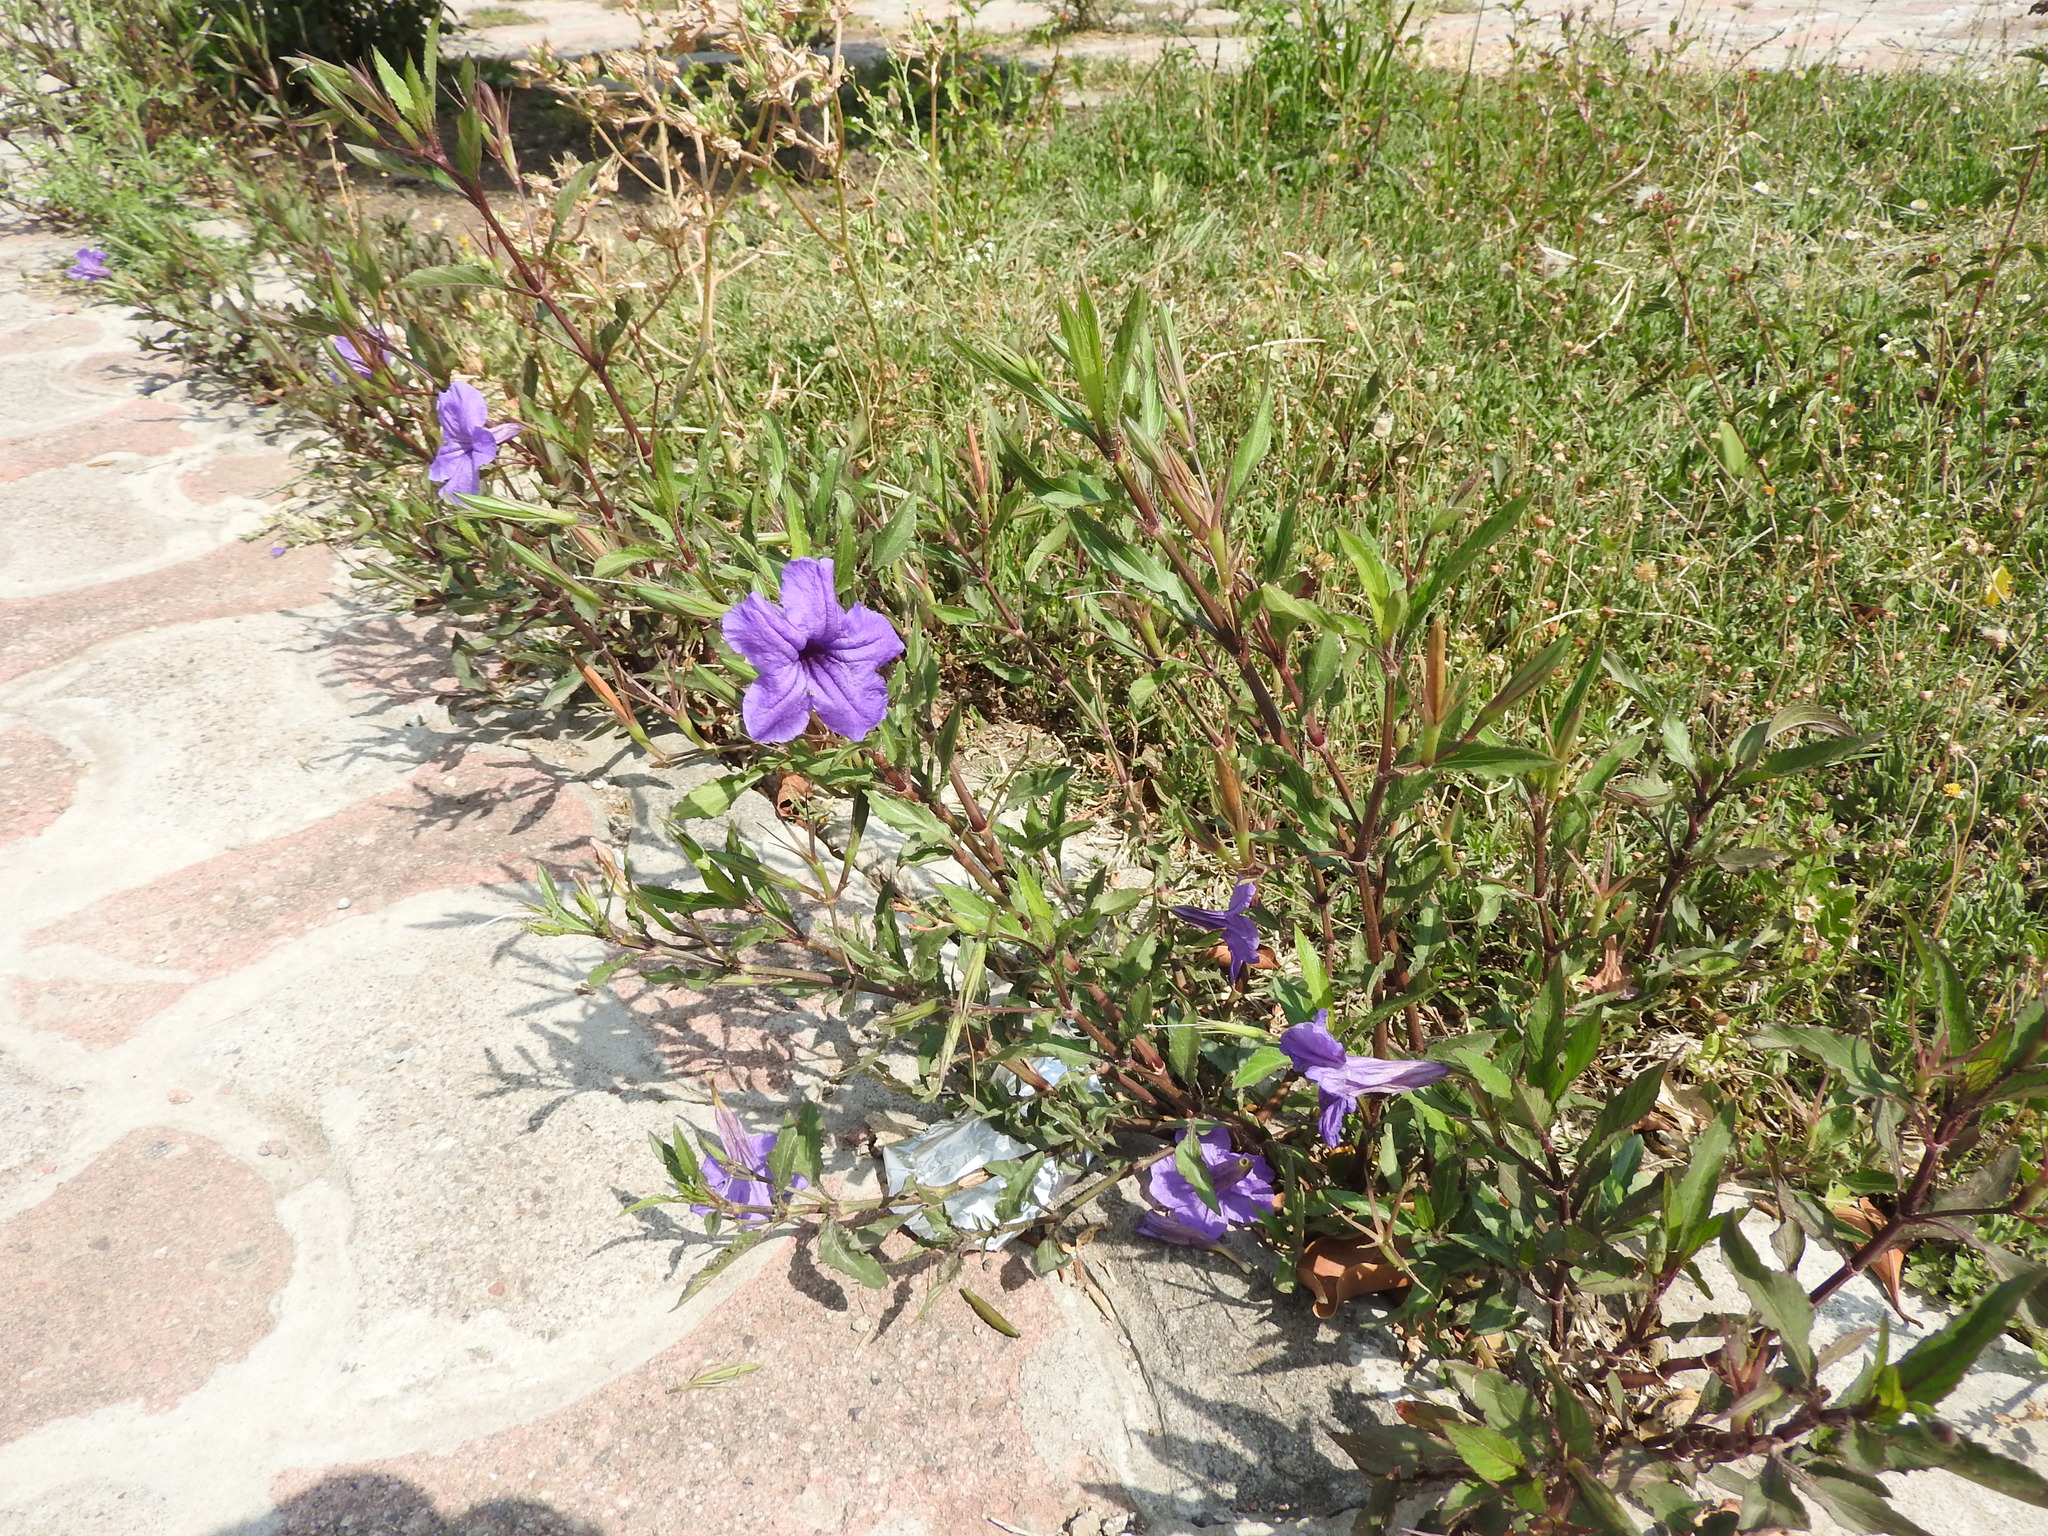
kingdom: Plantae
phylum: Tracheophyta
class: Magnoliopsida
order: Lamiales
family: Acanthaceae
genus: Ruellia
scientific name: Ruellia simplex
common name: Softseed wild petunia
